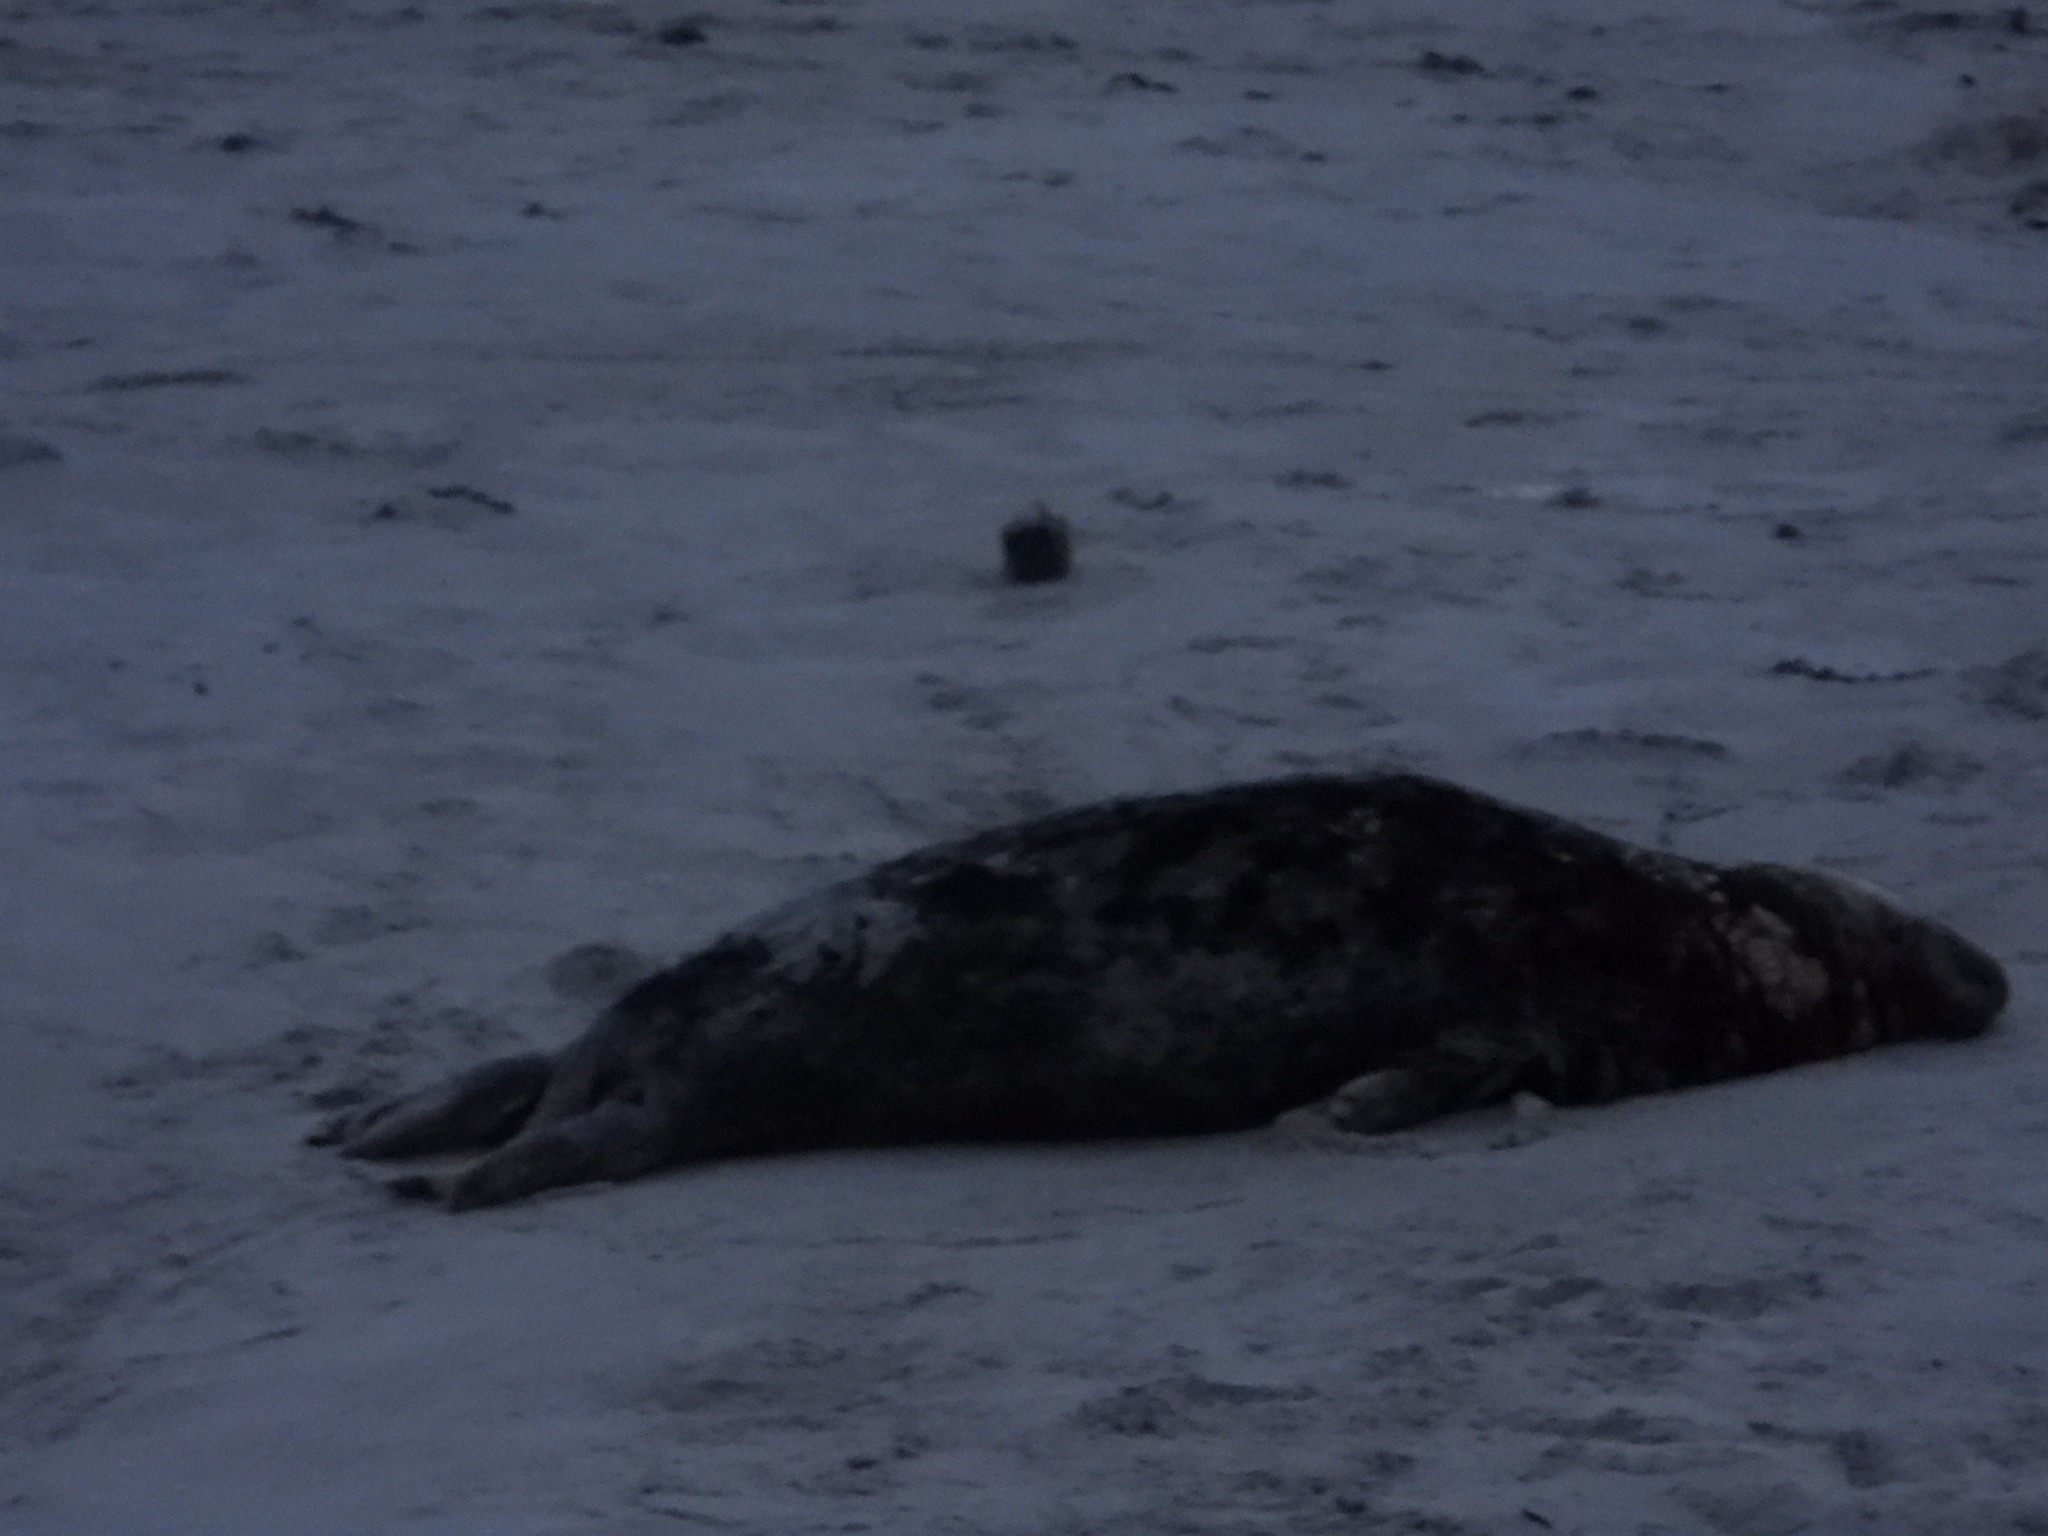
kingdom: Animalia
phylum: Chordata
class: Mammalia
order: Carnivora
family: Phocidae
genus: Halichoerus
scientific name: Halichoerus grypus
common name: Grey seal
